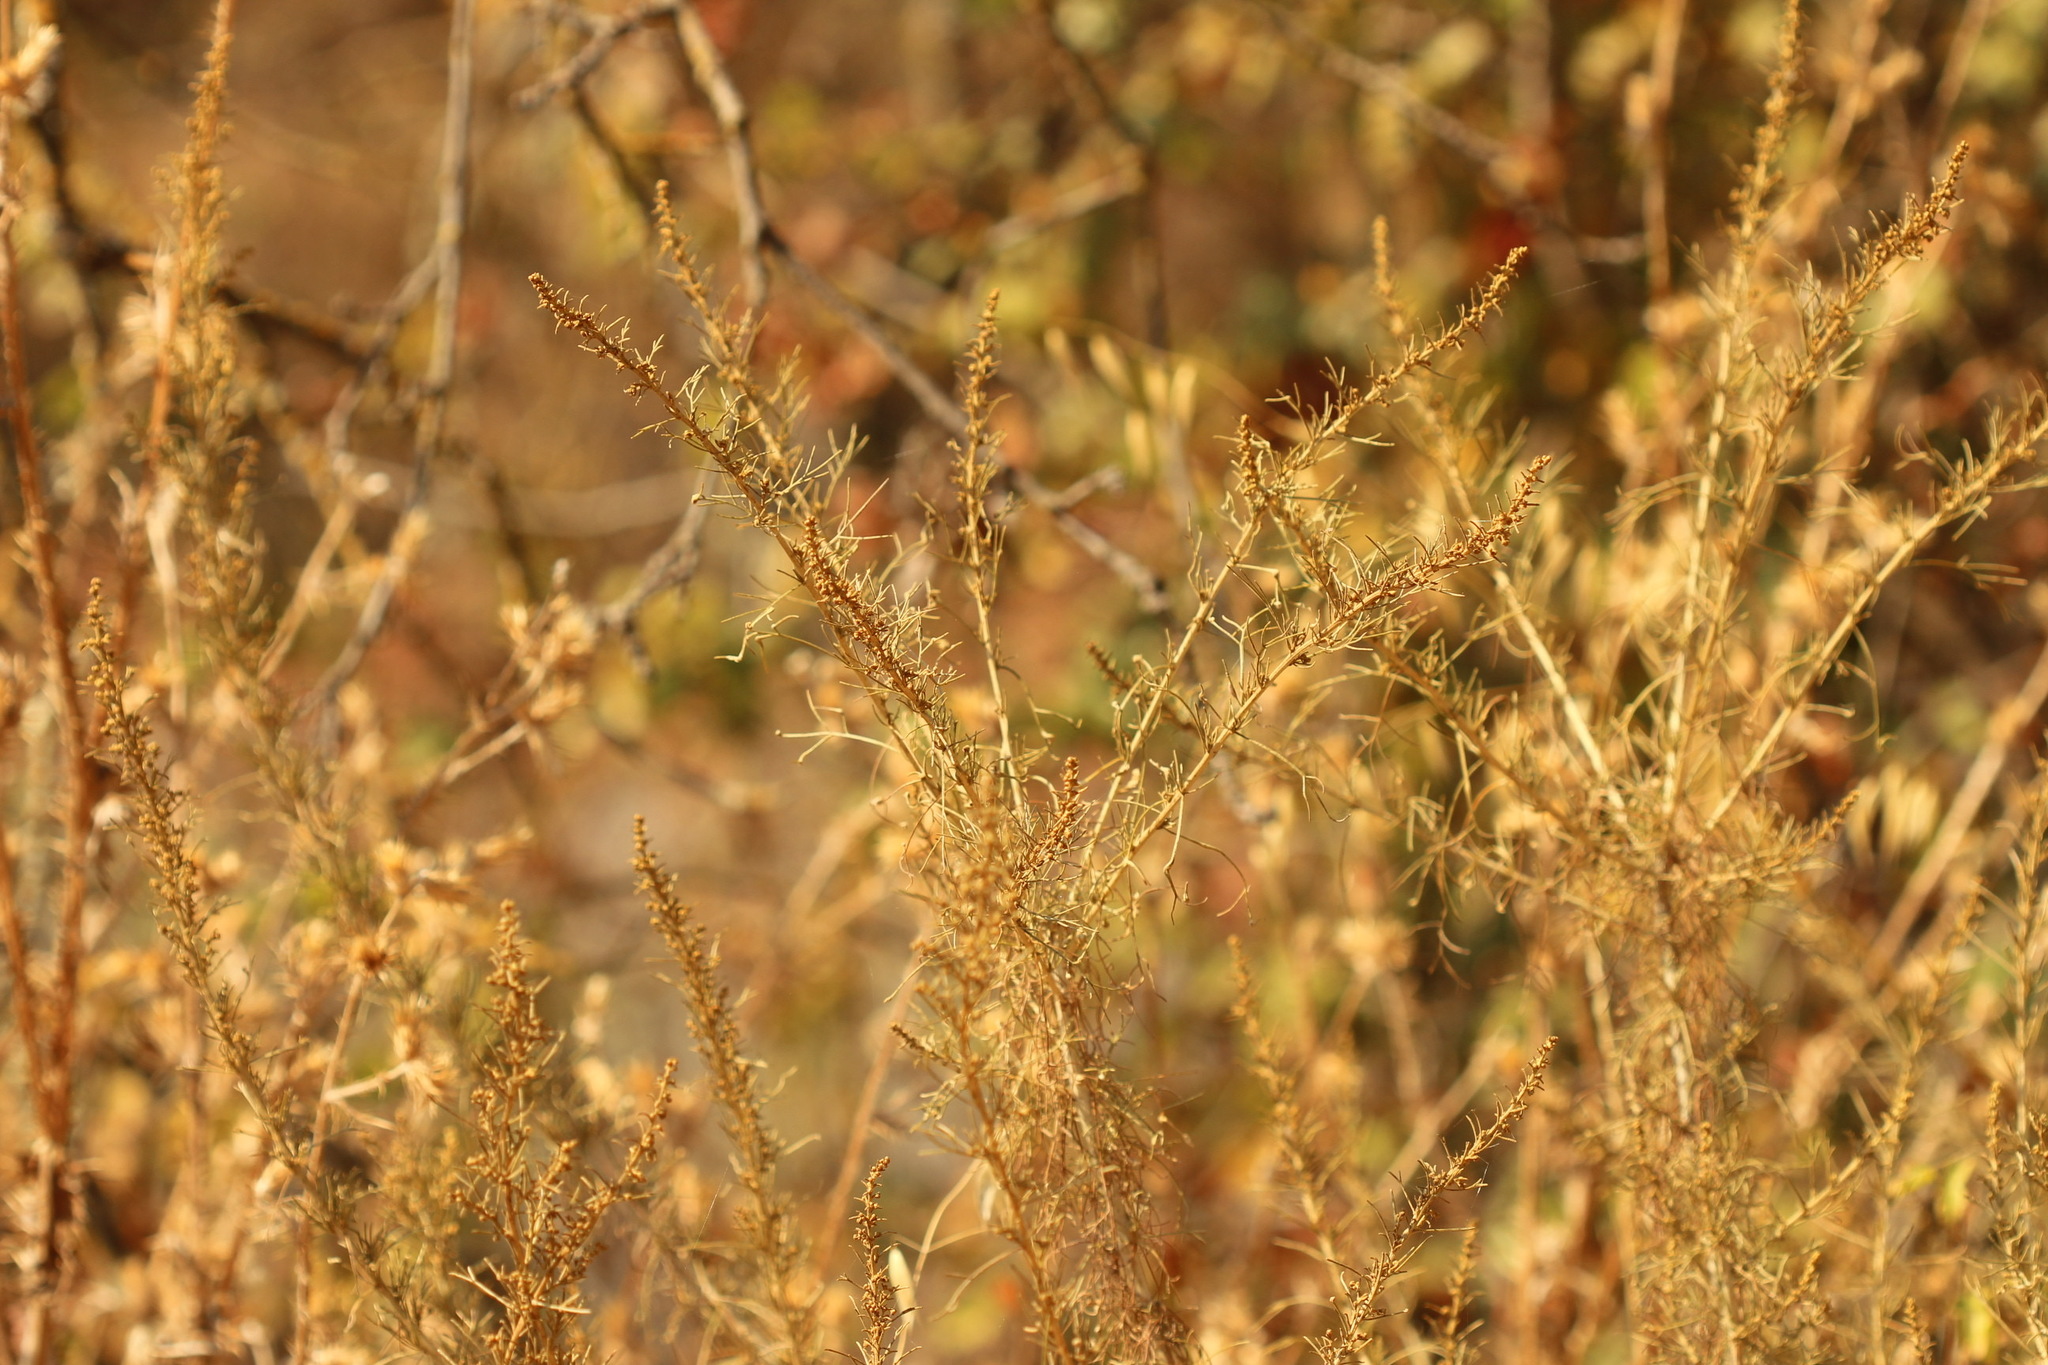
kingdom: Plantae
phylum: Tracheophyta
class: Magnoliopsida
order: Asterales
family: Asteraceae
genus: Artemisia
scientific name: Artemisia californica
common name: California sagebrush
